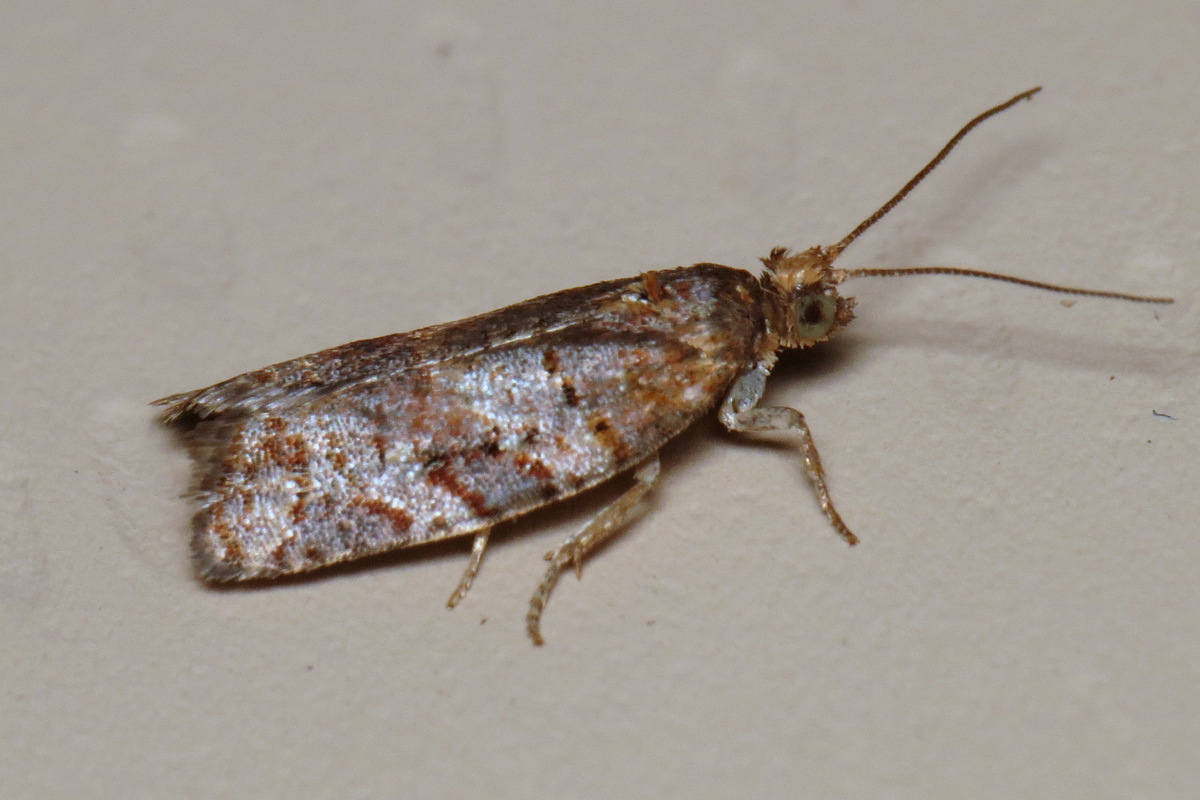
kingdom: Animalia
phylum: Arthropoda
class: Insecta
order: Lepidoptera
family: Tortricidae
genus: Argyrotaenia
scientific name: Argyrotaenia pinatubana
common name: Pine tube moth
